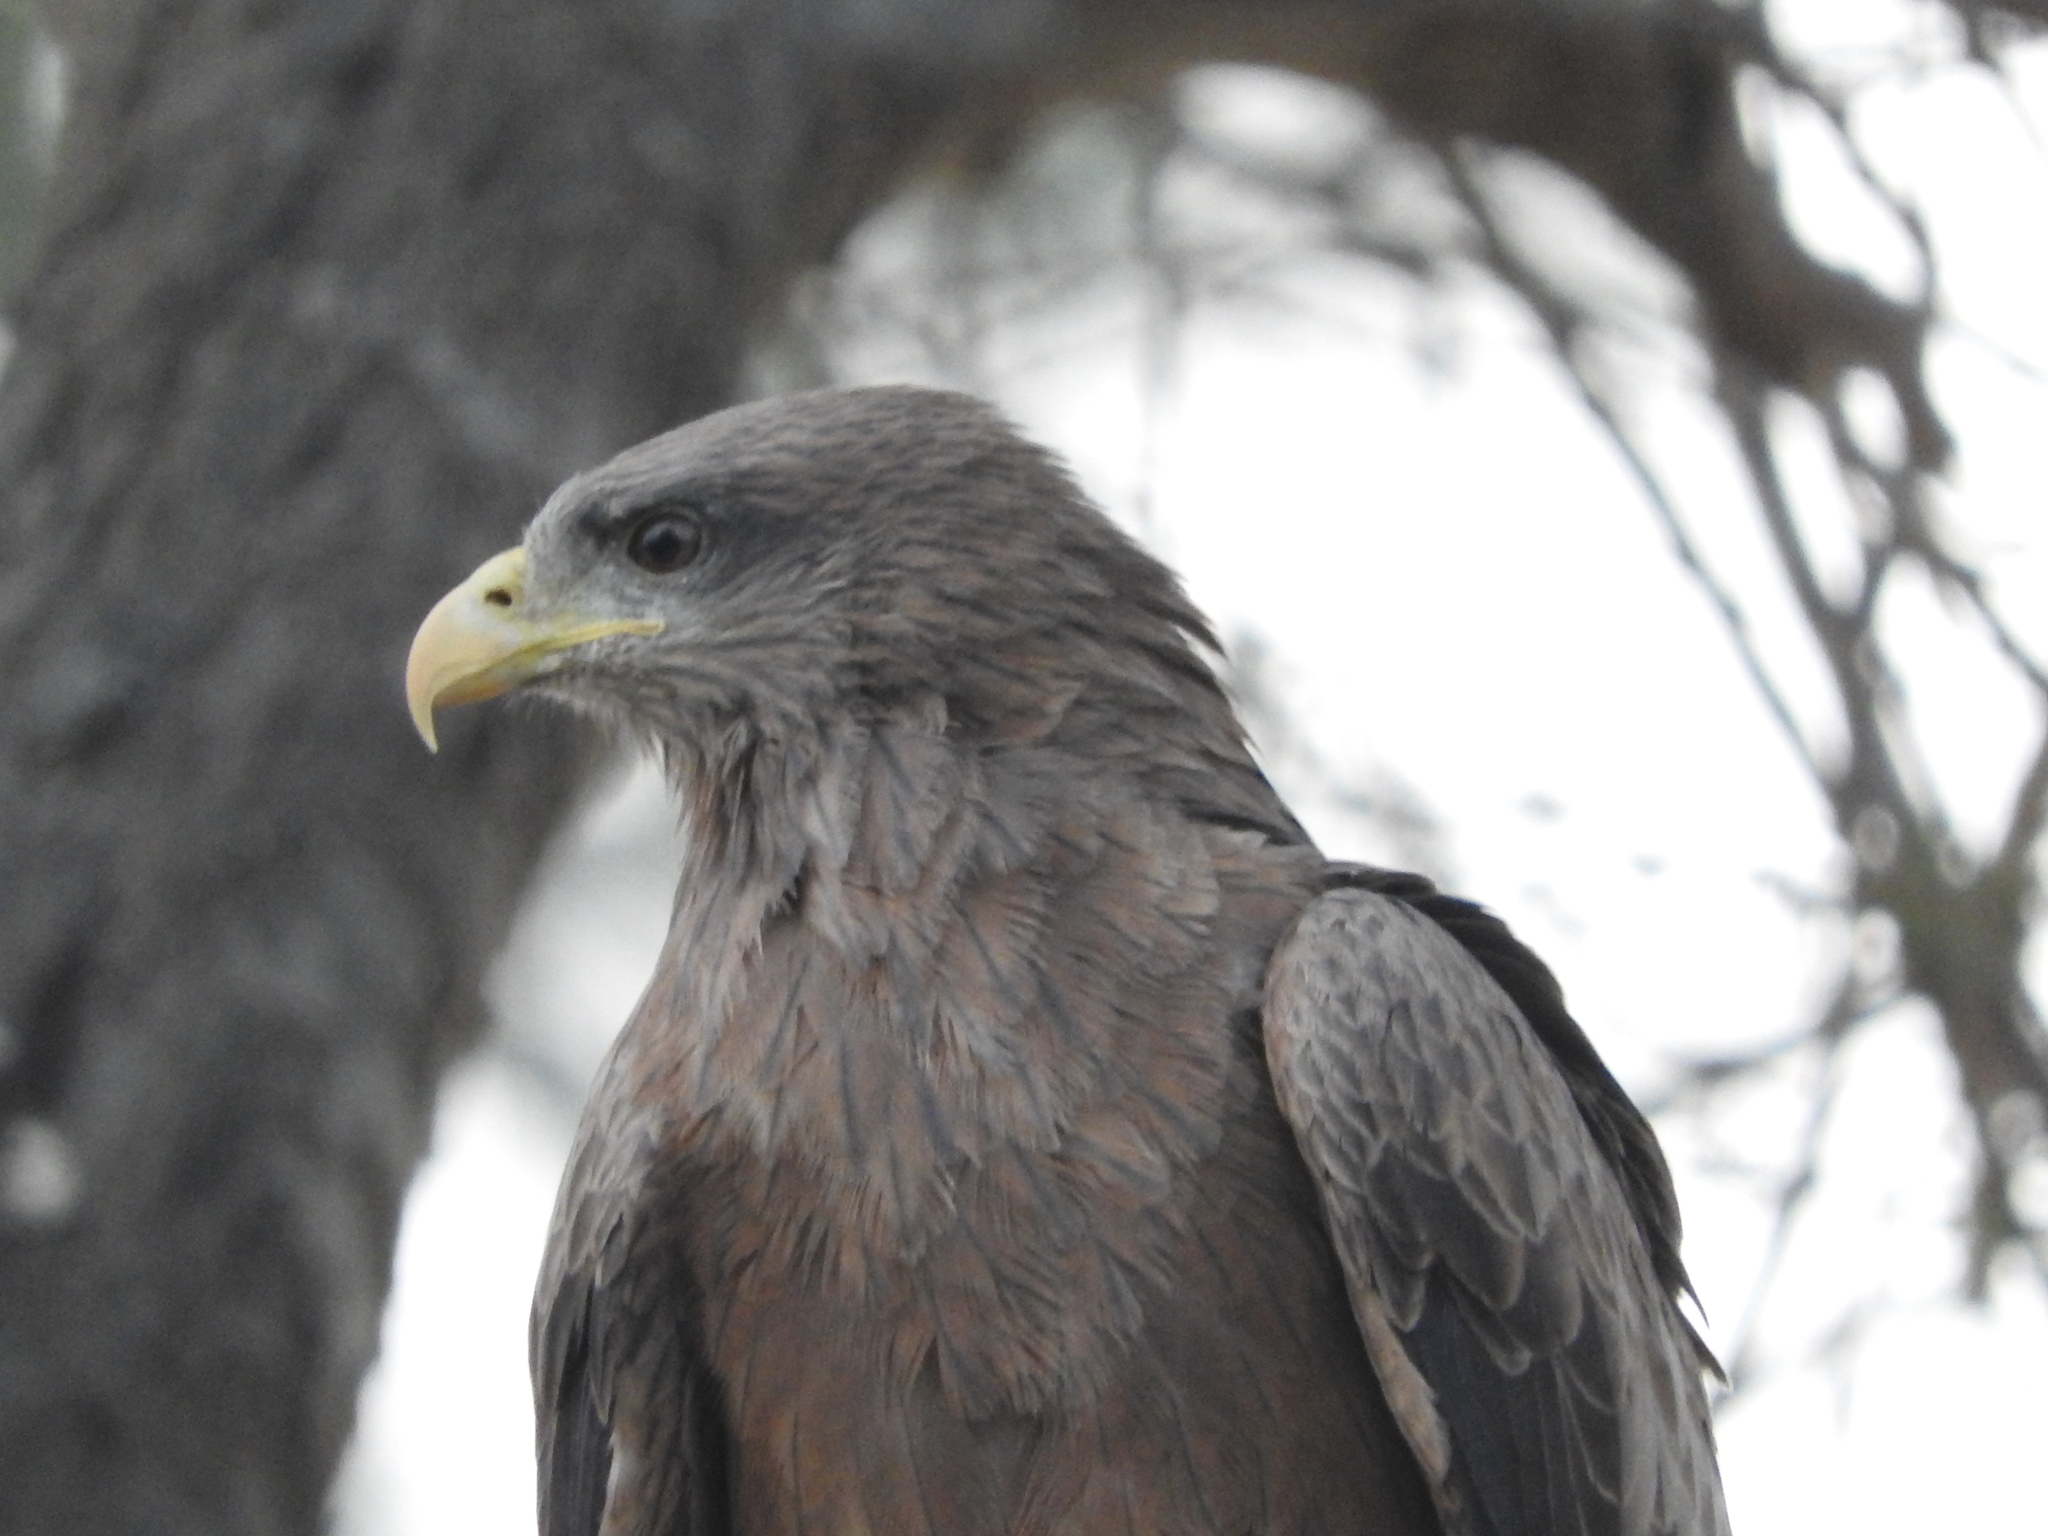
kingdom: Animalia
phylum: Chordata
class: Aves
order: Accipitriformes
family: Accipitridae
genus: Milvus
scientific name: Milvus migrans
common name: Black kite
